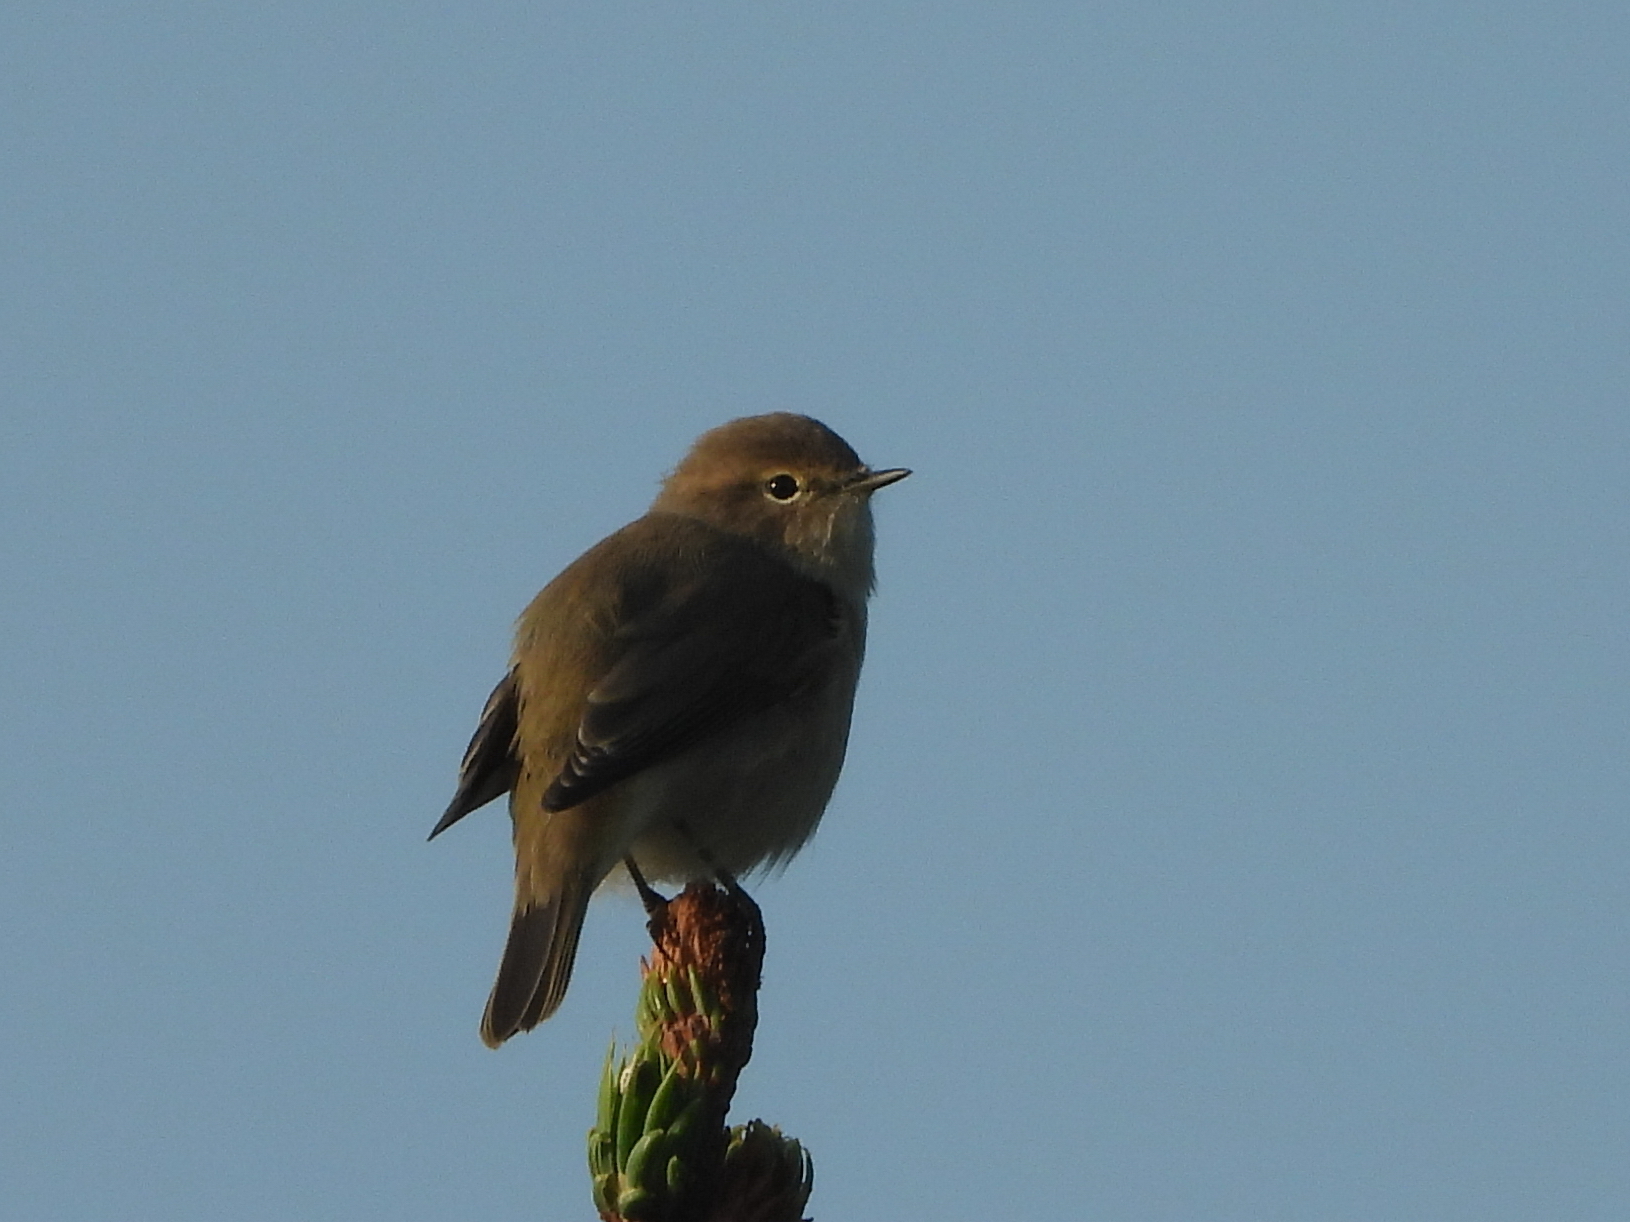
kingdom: Animalia
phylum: Chordata
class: Aves
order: Passeriformes
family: Phylloscopidae
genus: Phylloscopus
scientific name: Phylloscopus collybita
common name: Common chiffchaff
